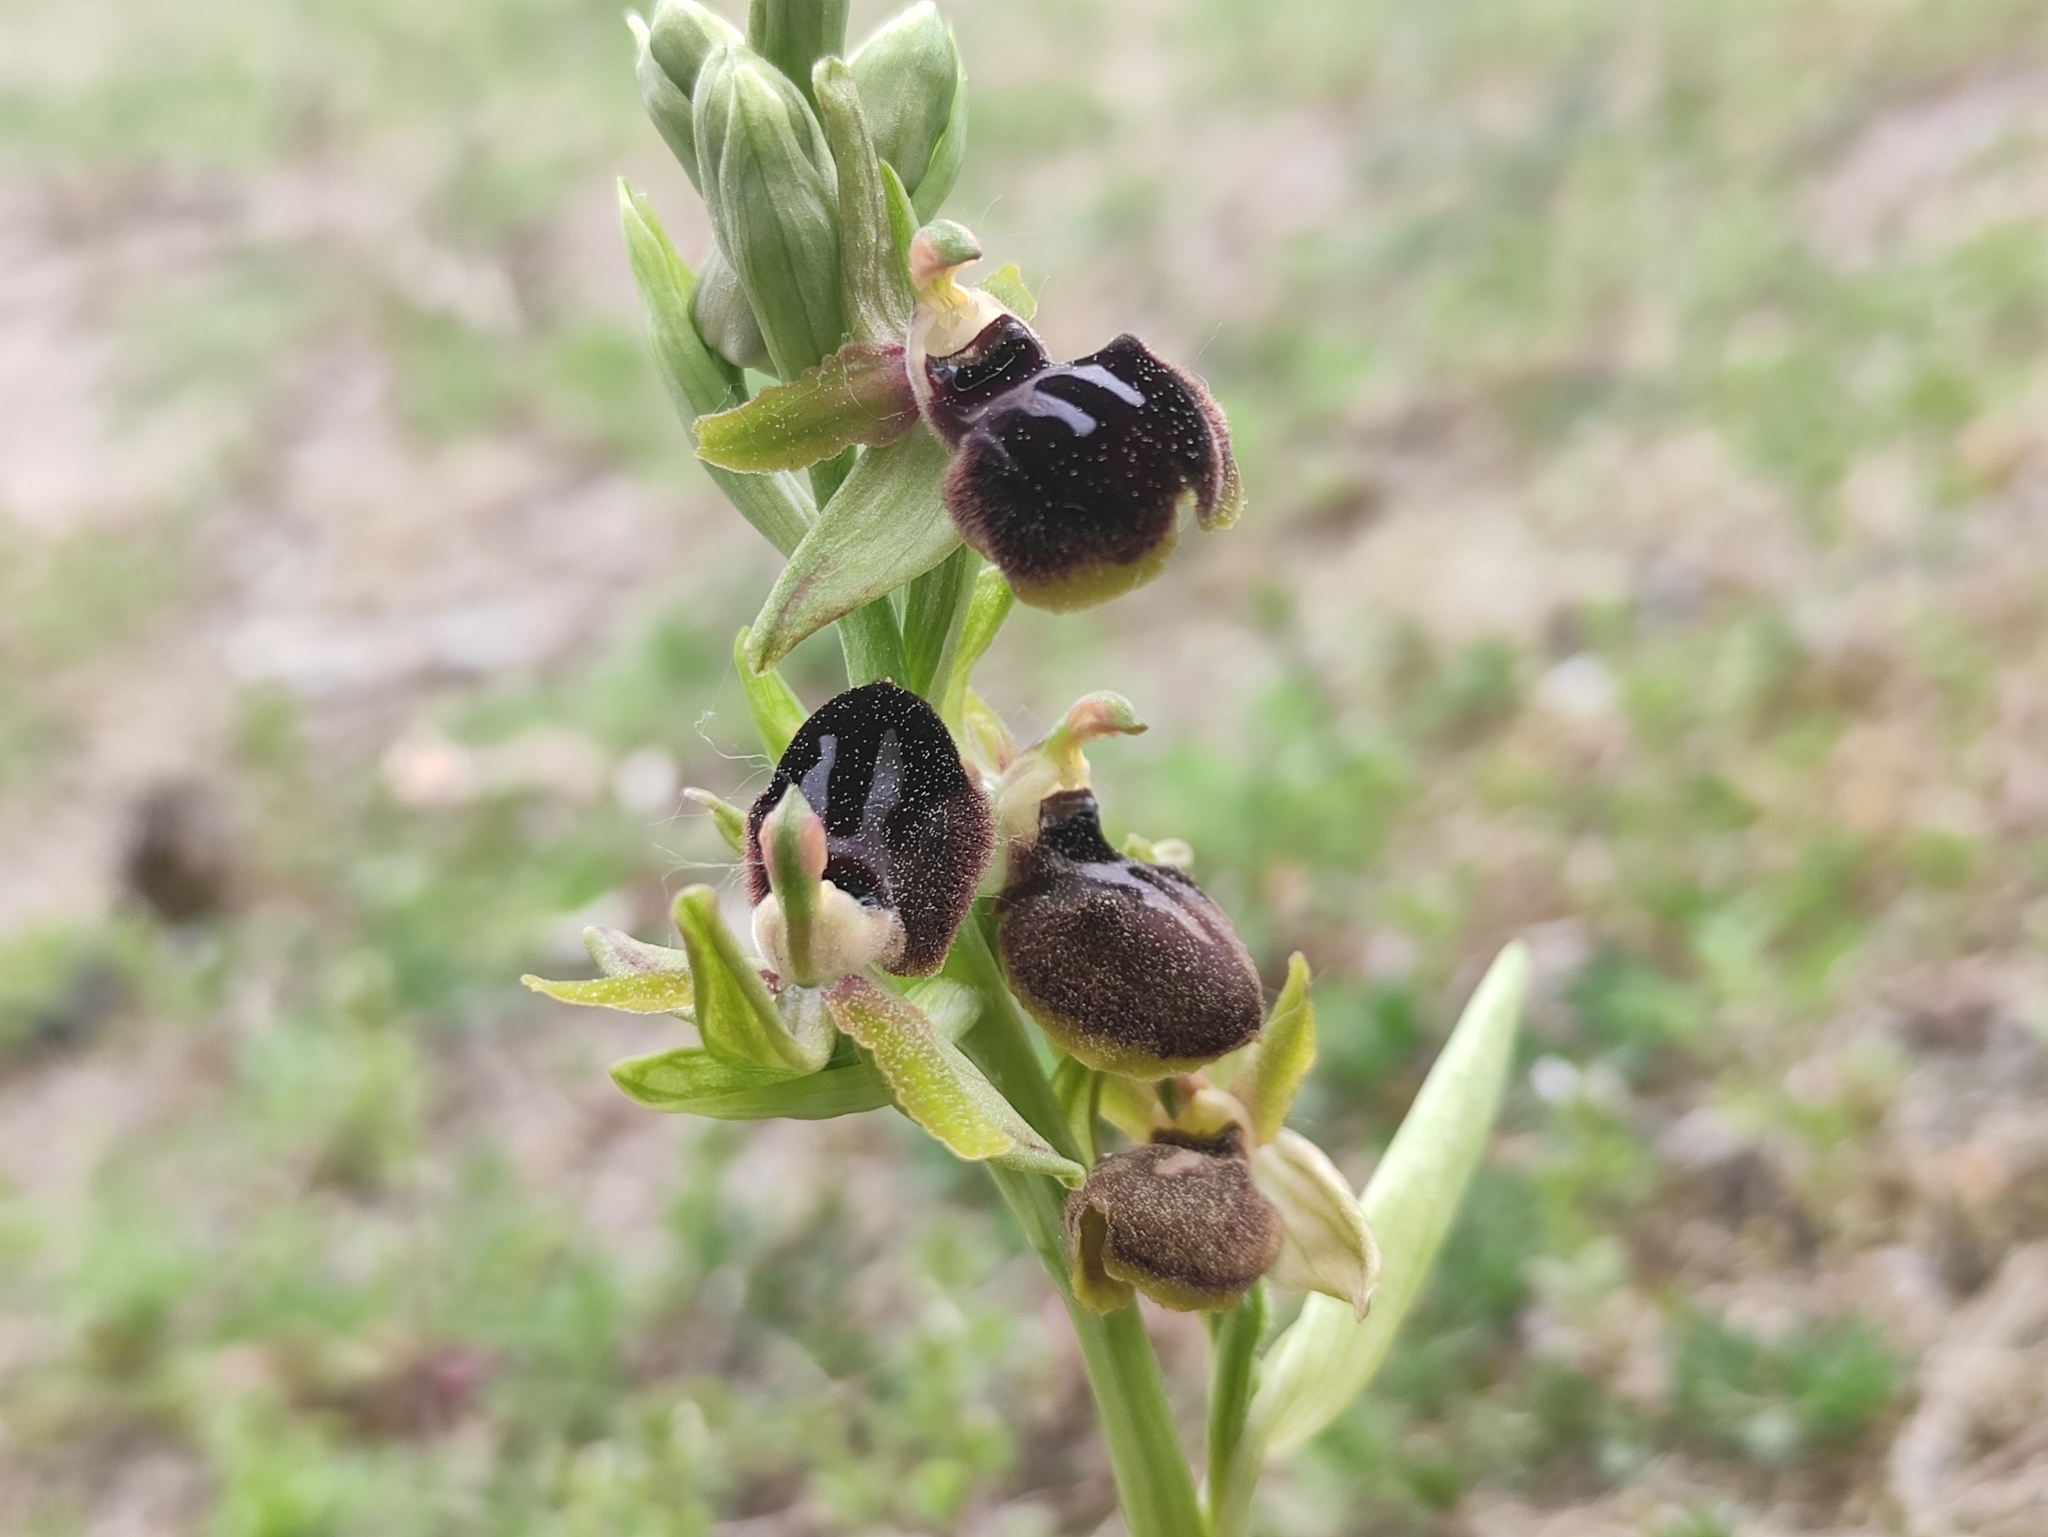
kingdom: Plantae
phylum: Tracheophyta
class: Liliopsida
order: Asparagales
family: Orchidaceae
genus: Ophrys
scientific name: Ophrys sphegodes
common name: Early spider-orchid
